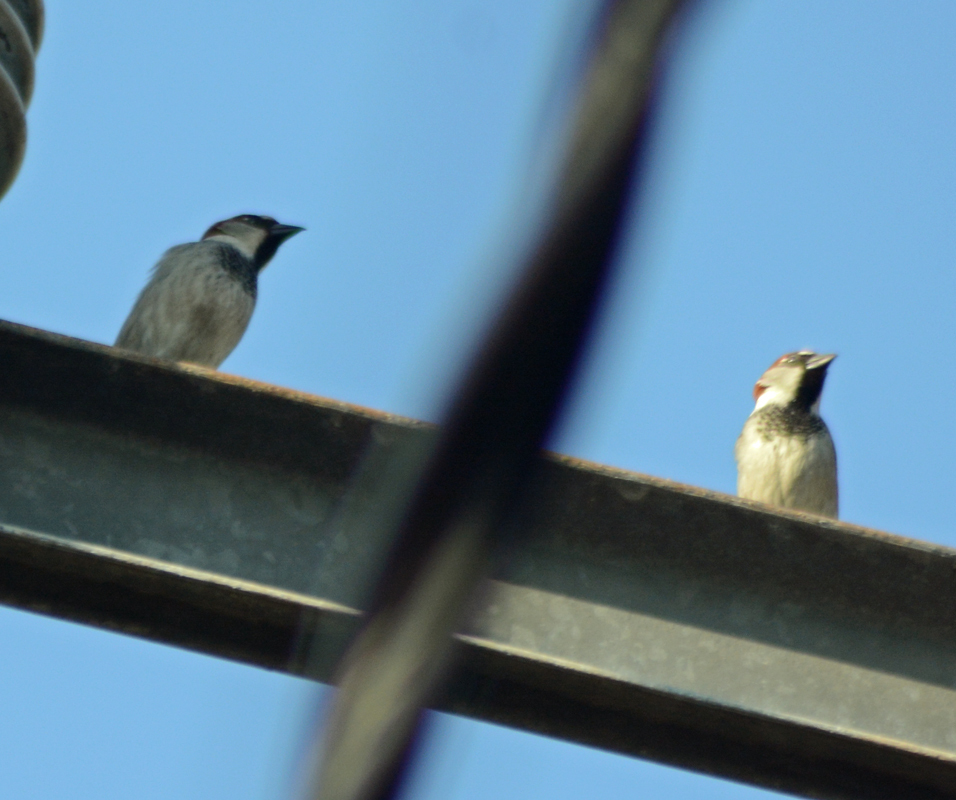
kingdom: Animalia
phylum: Chordata
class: Aves
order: Passeriformes
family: Passeridae
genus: Passer
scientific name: Passer domesticus
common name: House sparrow
